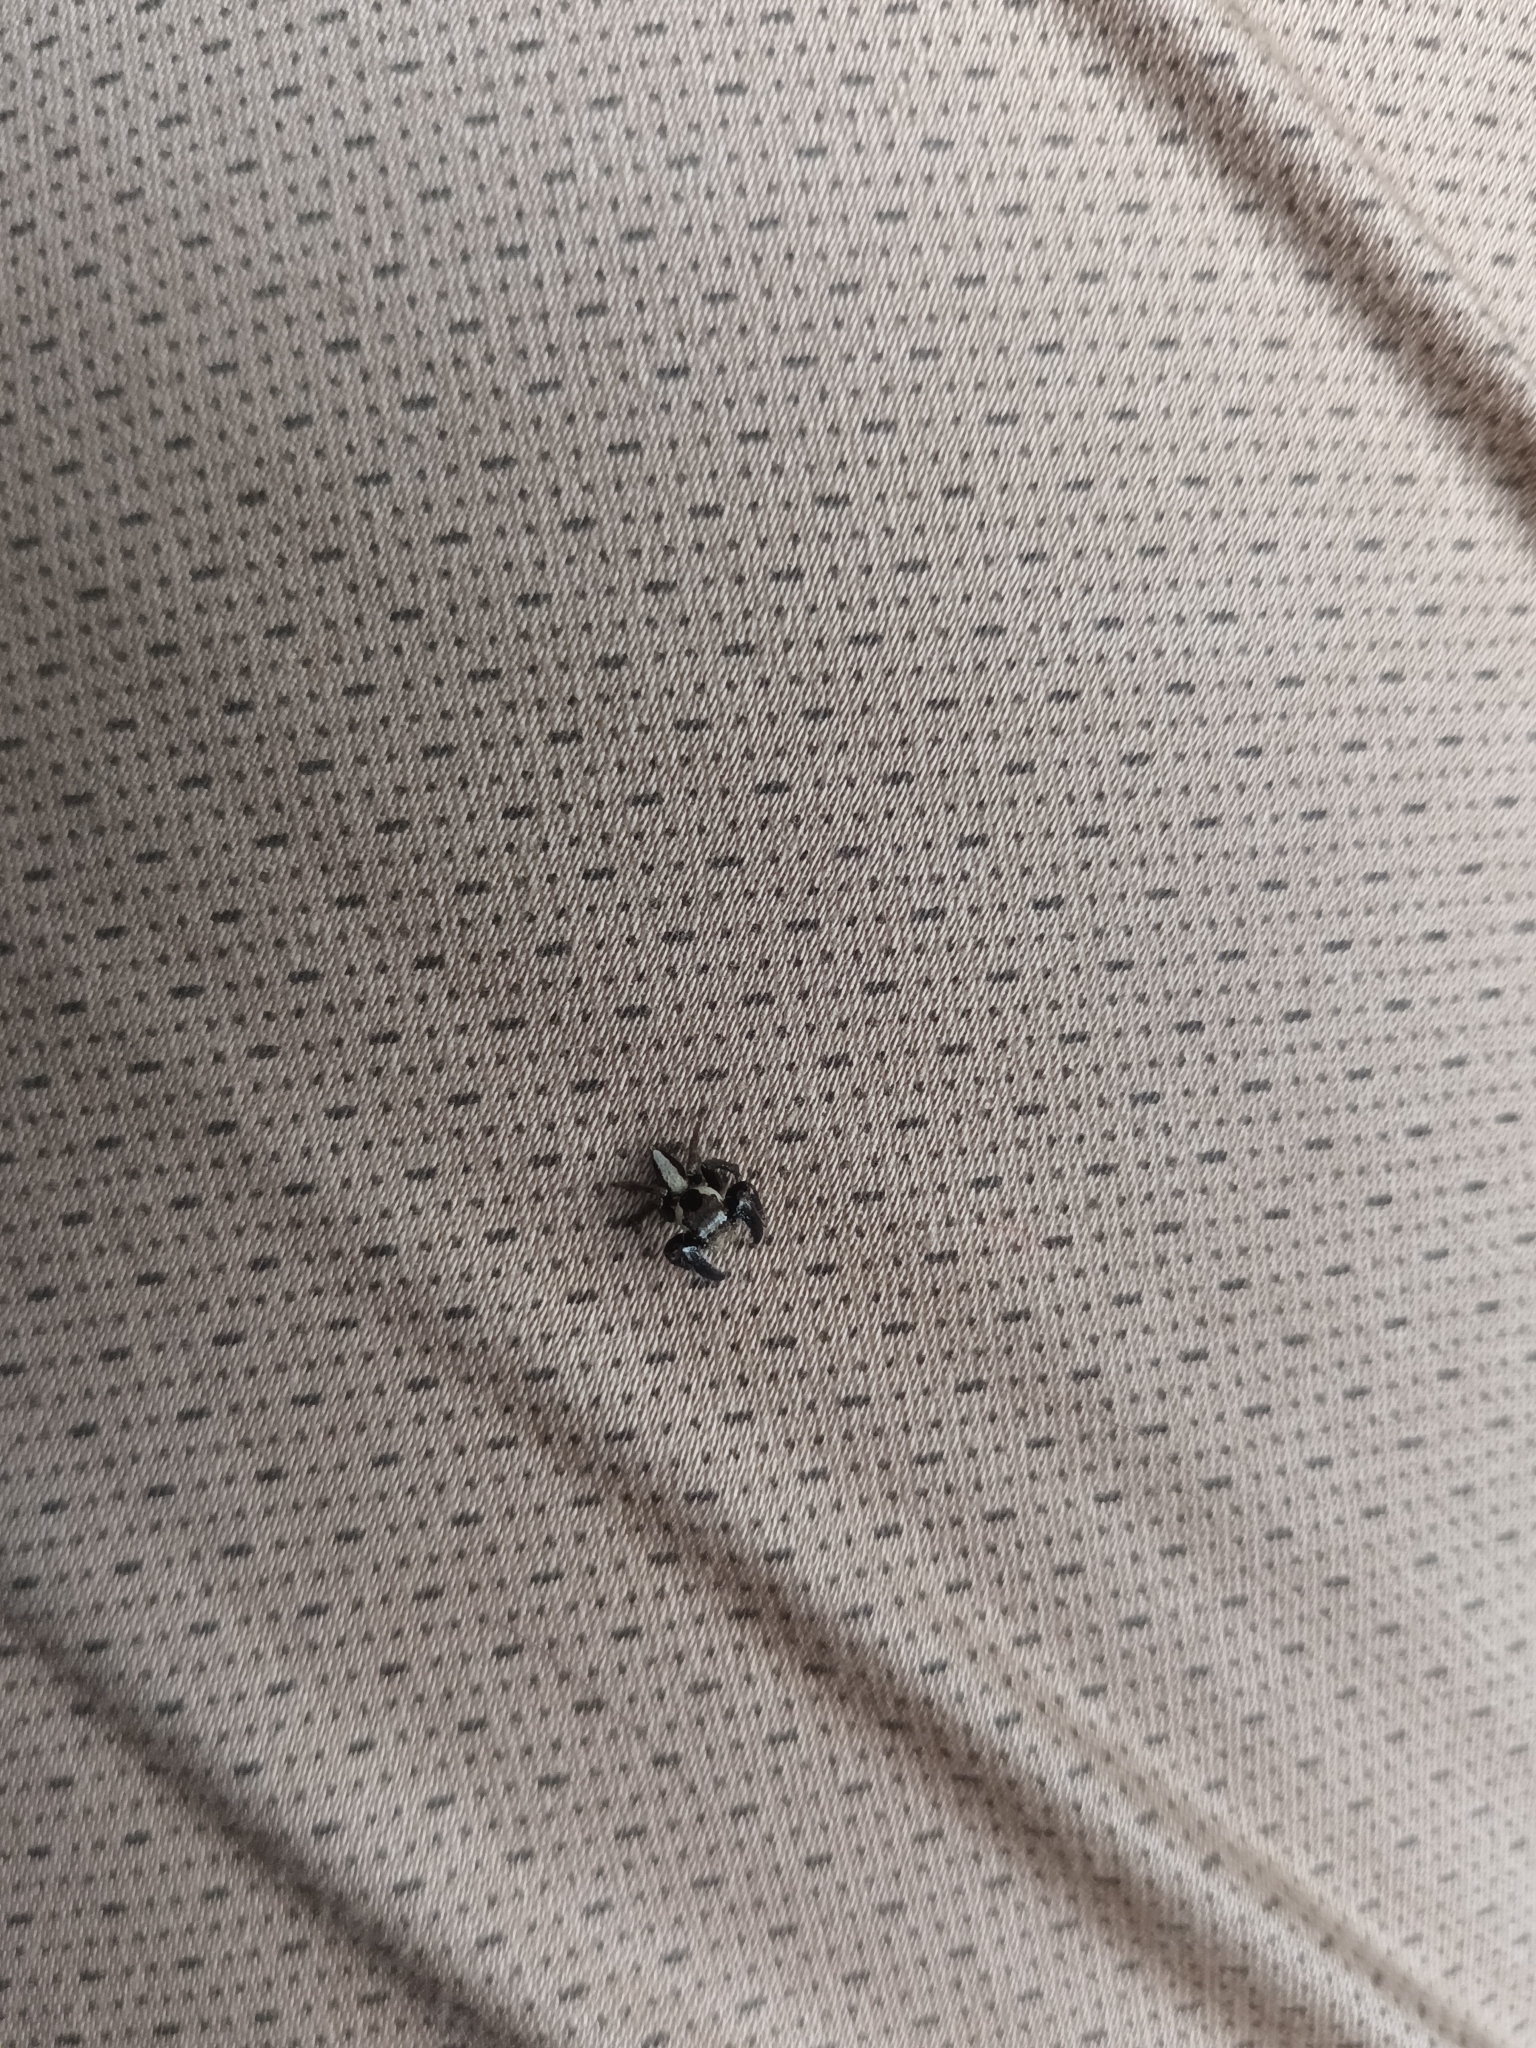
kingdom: Animalia
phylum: Arthropoda
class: Arachnida
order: Araneae
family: Salticidae
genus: Hyllus
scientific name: Hyllus manu
